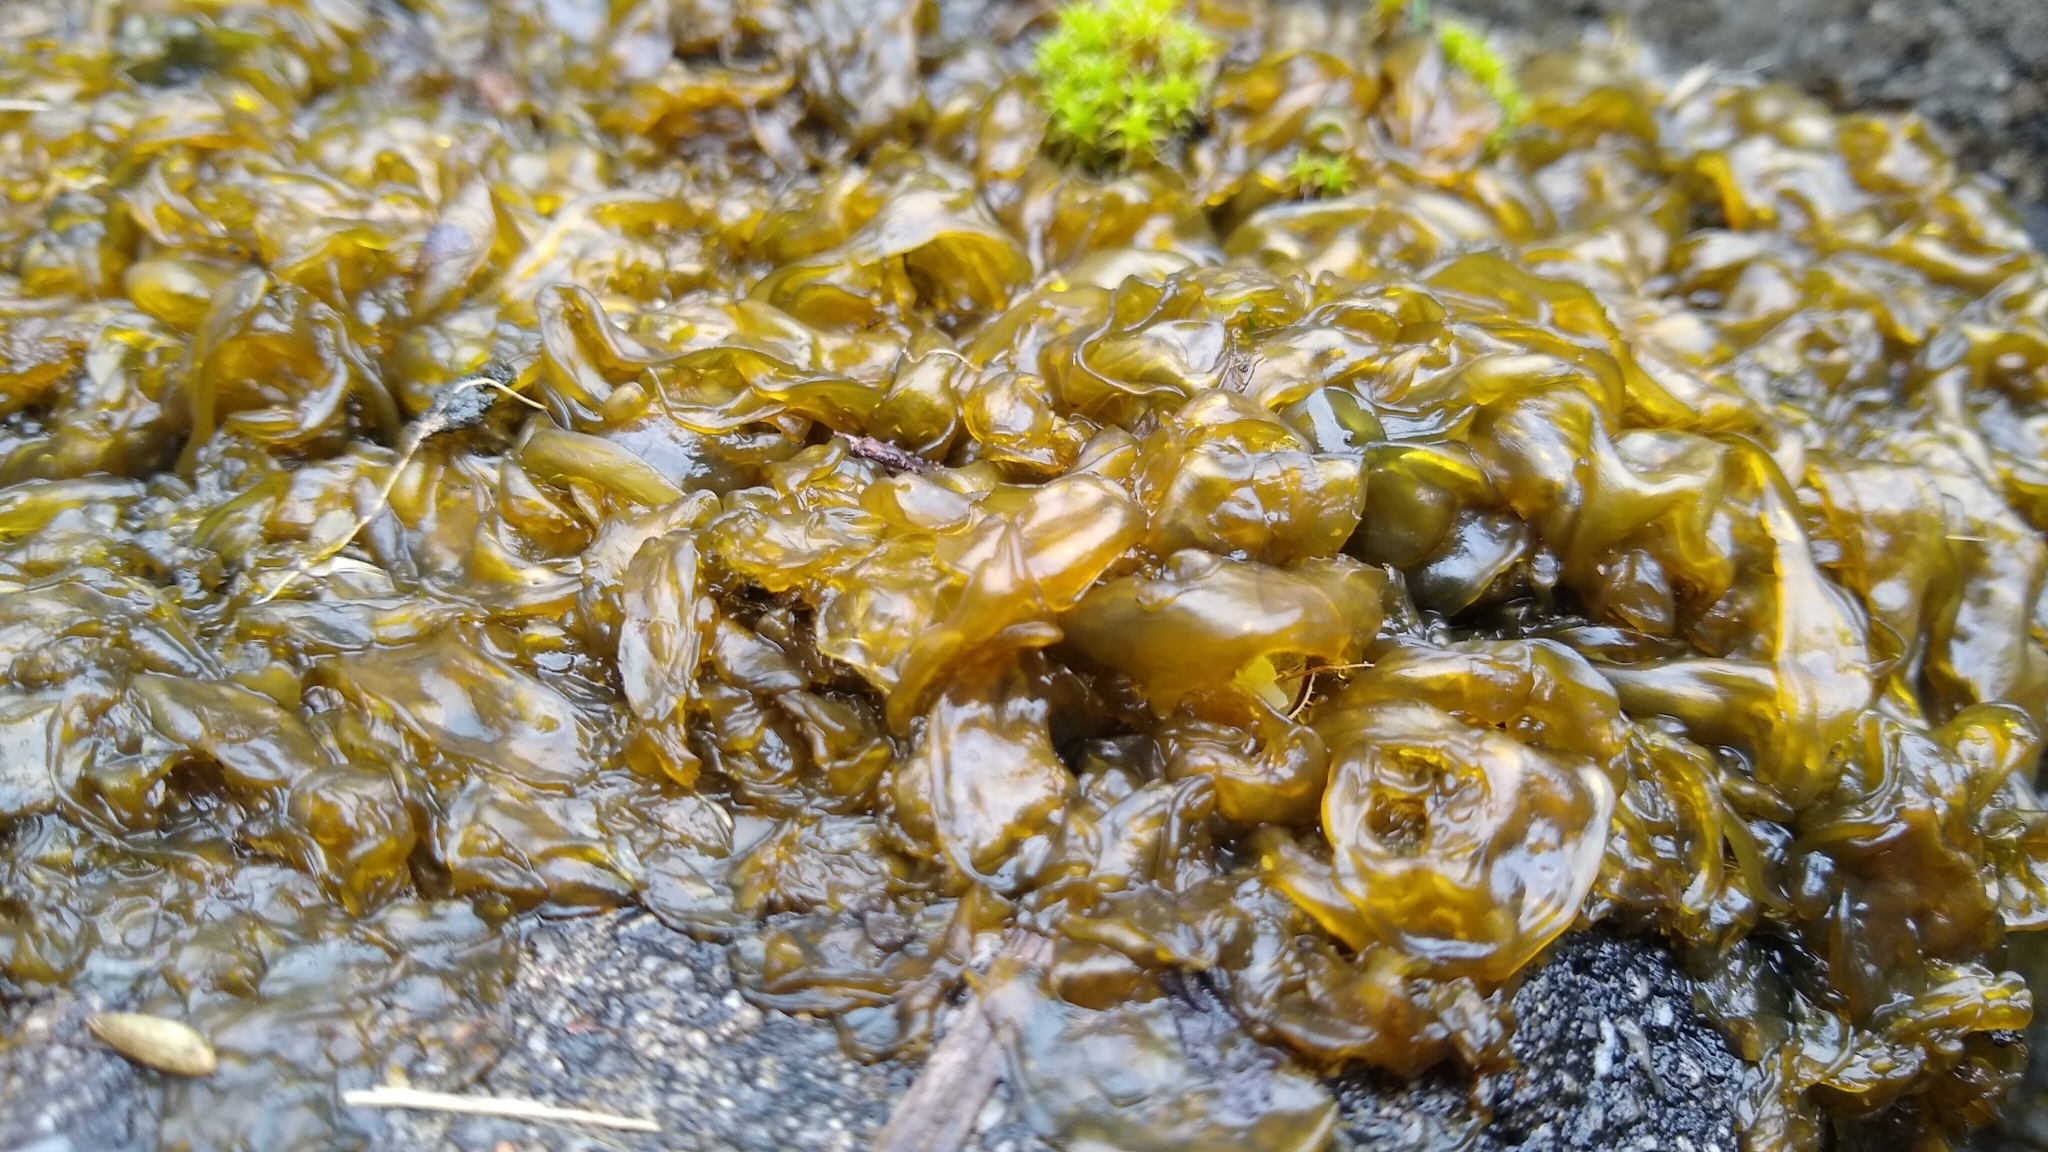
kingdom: Bacteria
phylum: Cyanobacteria
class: Cyanobacteriia
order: Cyanobacteriales
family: Nostocaceae
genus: Nostoc
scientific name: Nostoc commune
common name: Star jelly
